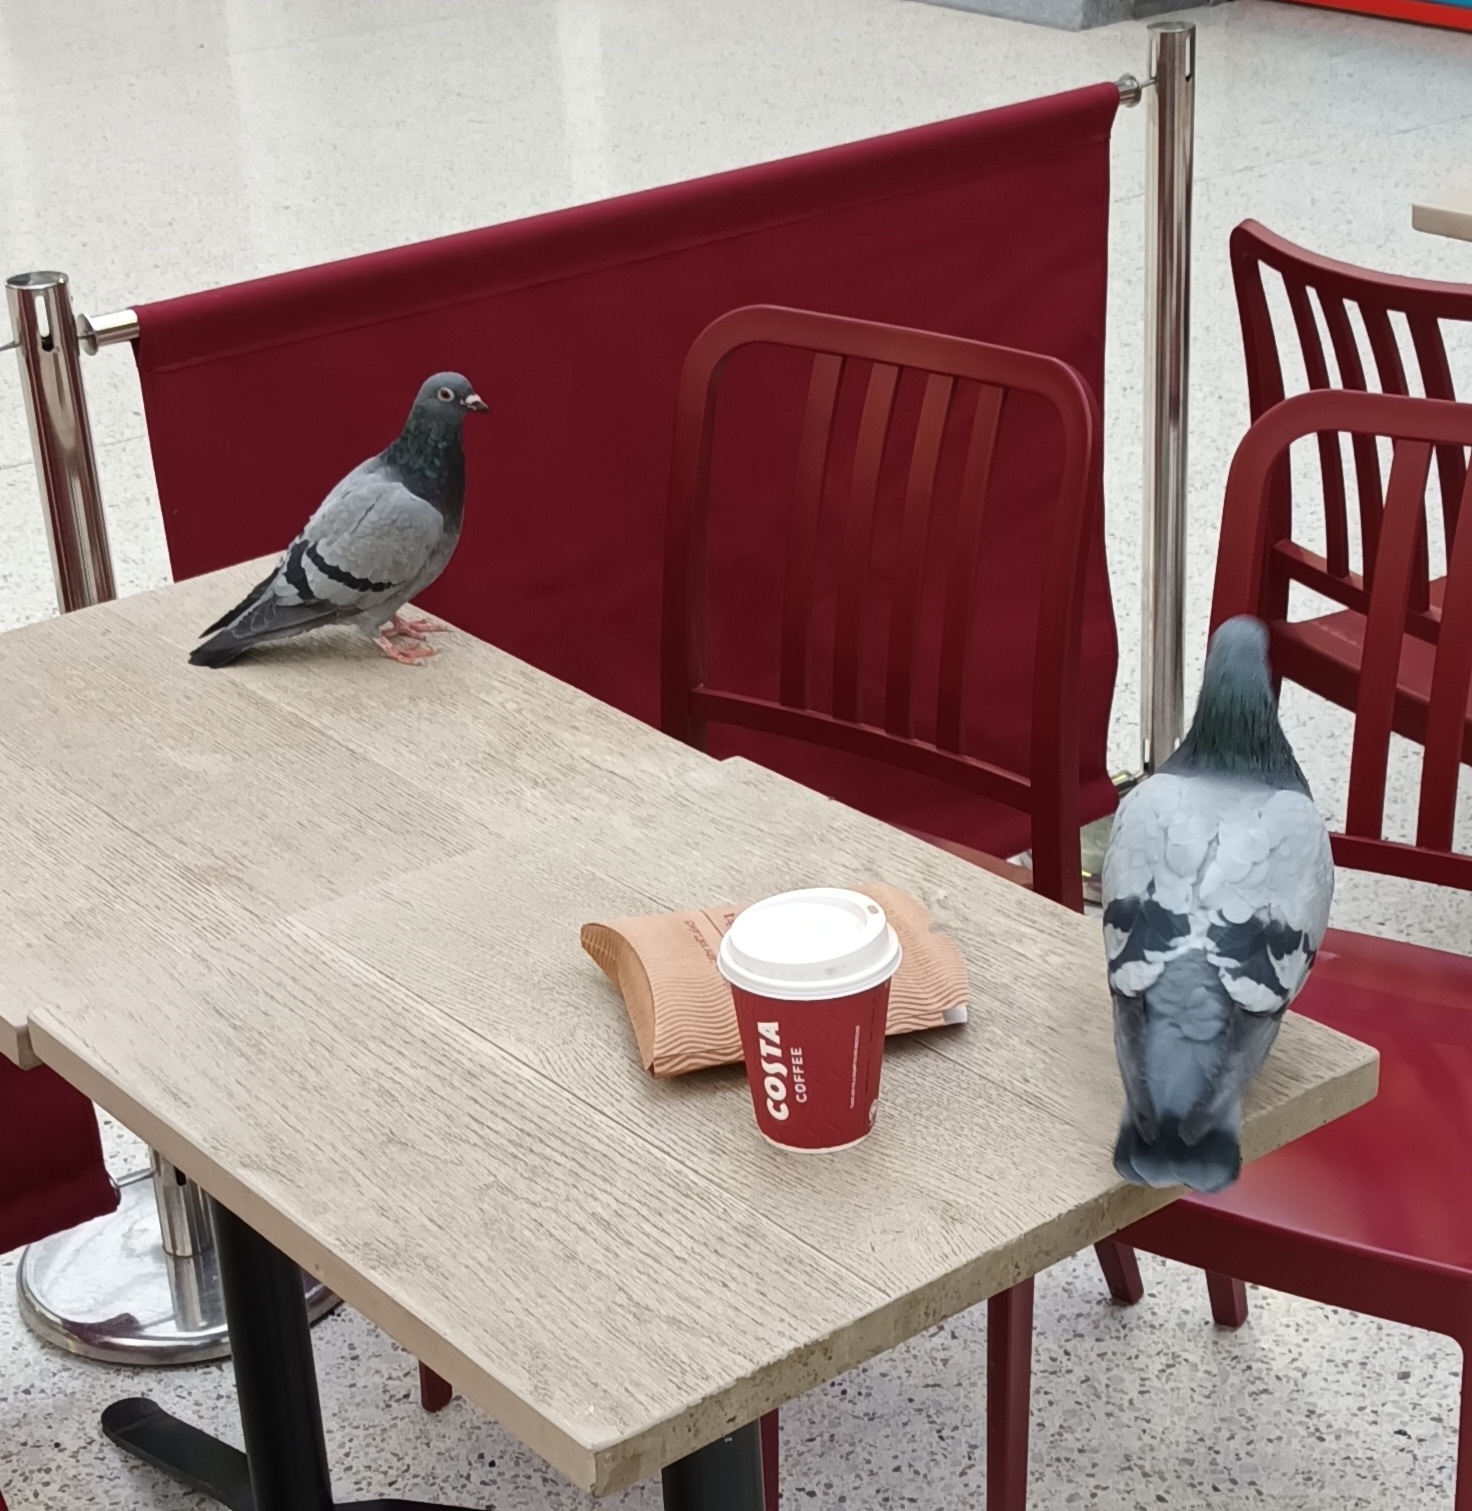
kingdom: Animalia
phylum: Chordata
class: Aves
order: Columbiformes
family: Columbidae
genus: Columba
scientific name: Columba livia
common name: Rock pigeon
